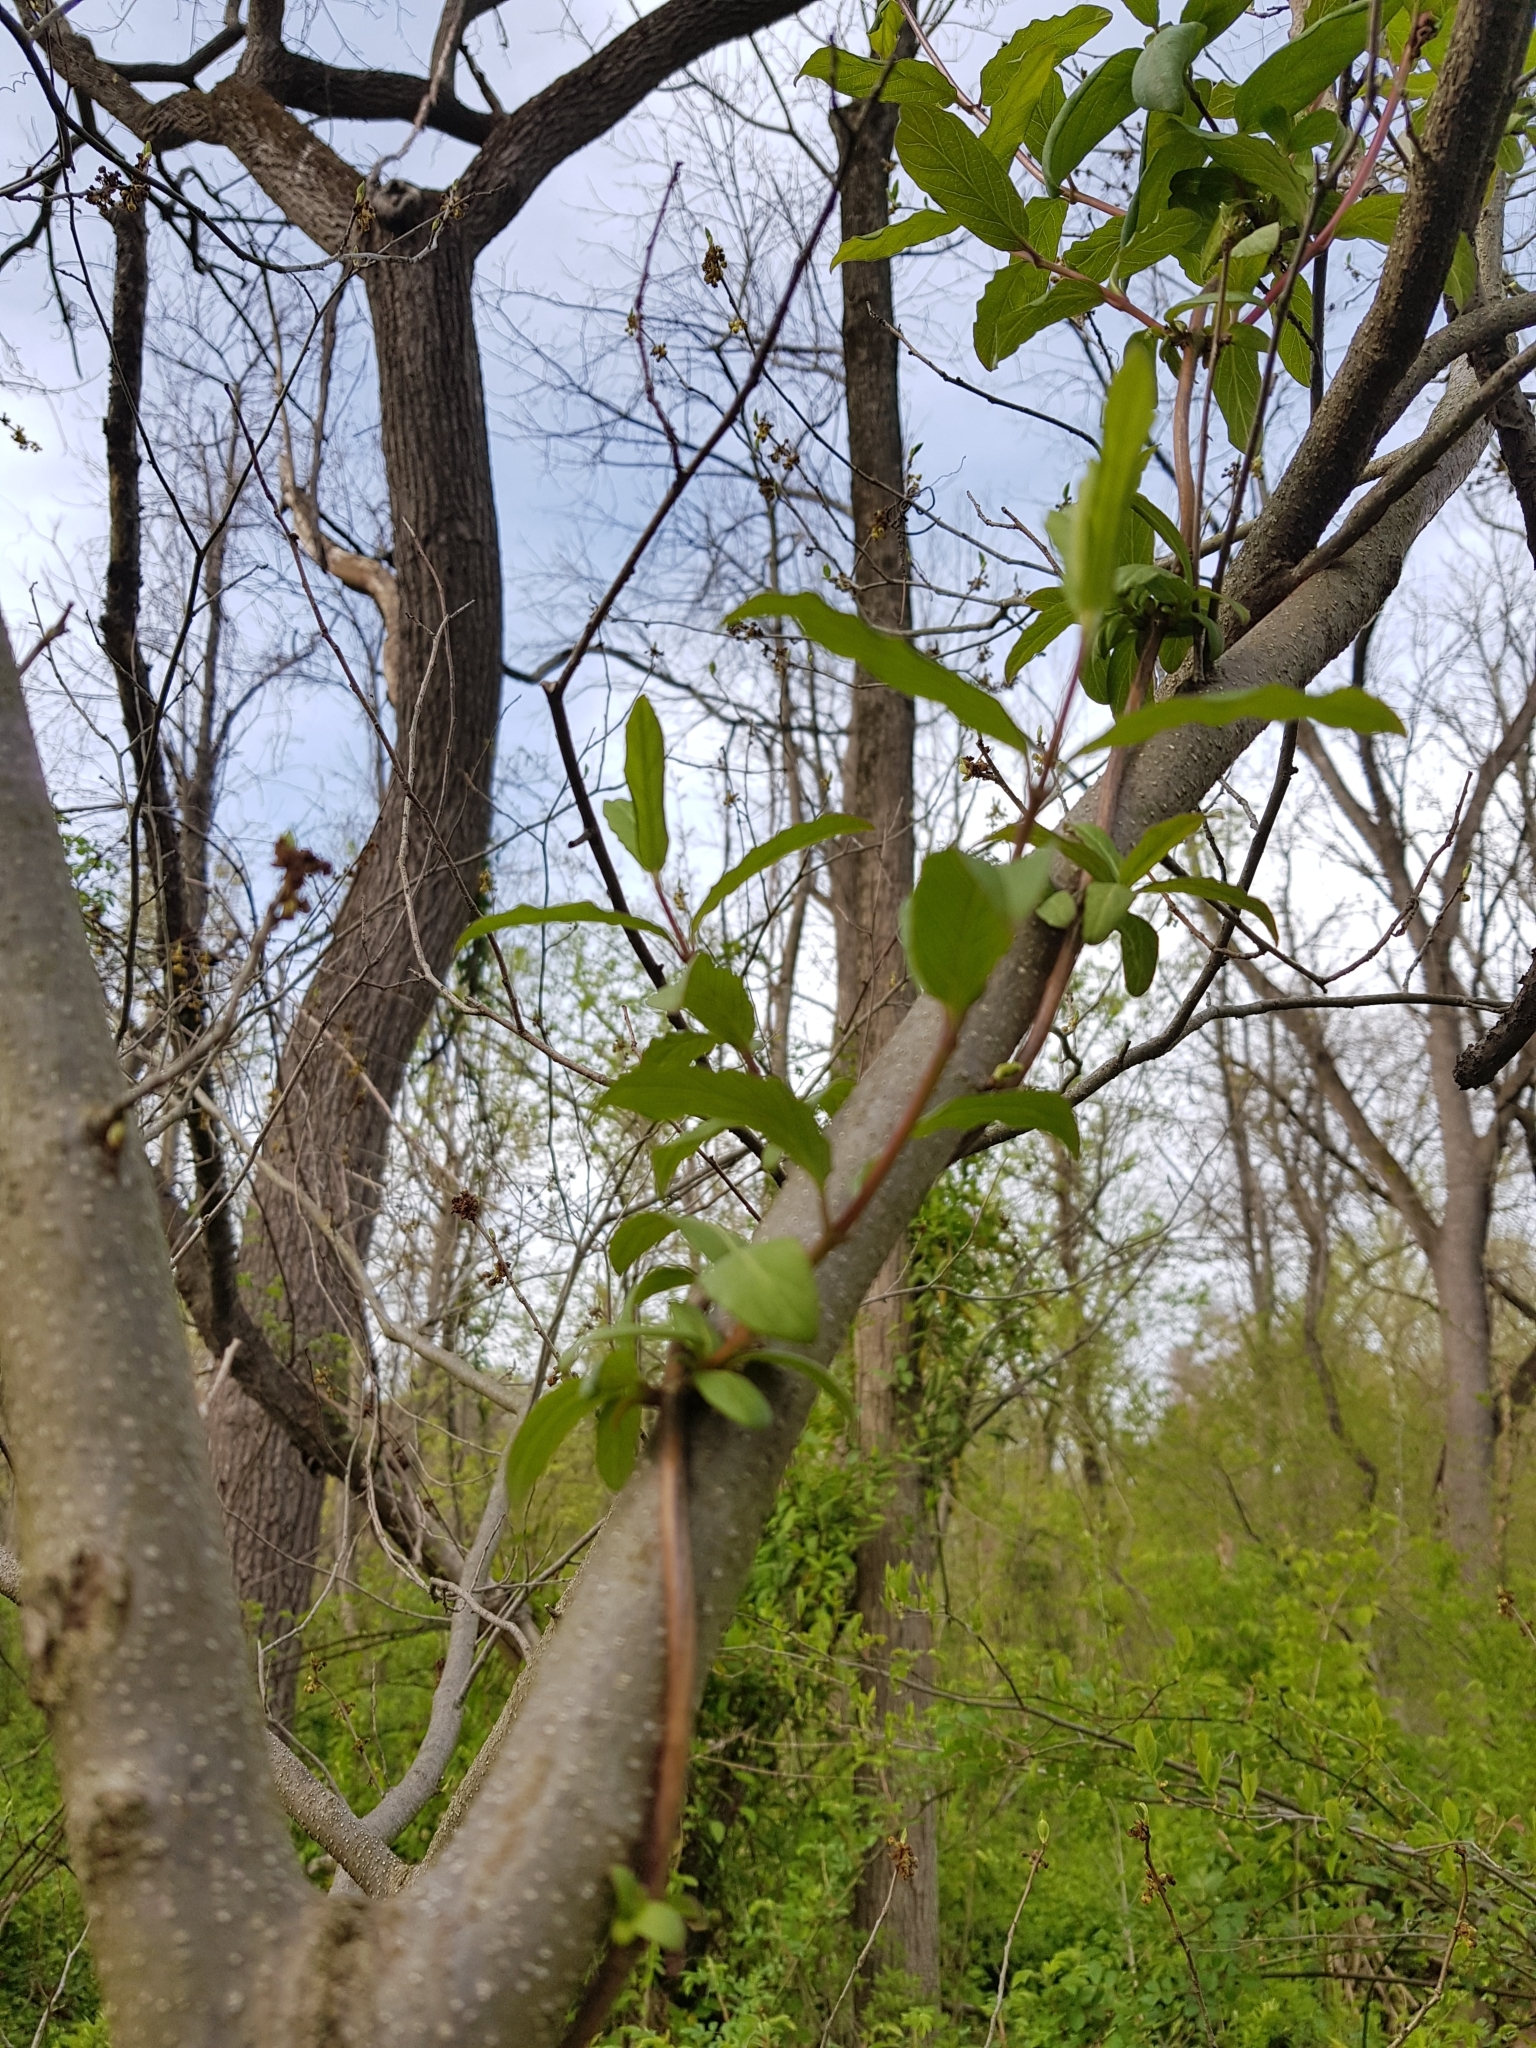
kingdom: Plantae
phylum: Tracheophyta
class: Magnoliopsida
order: Dipsacales
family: Caprifoliaceae
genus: Lonicera
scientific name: Lonicera japonica
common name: Japanese honeysuckle
